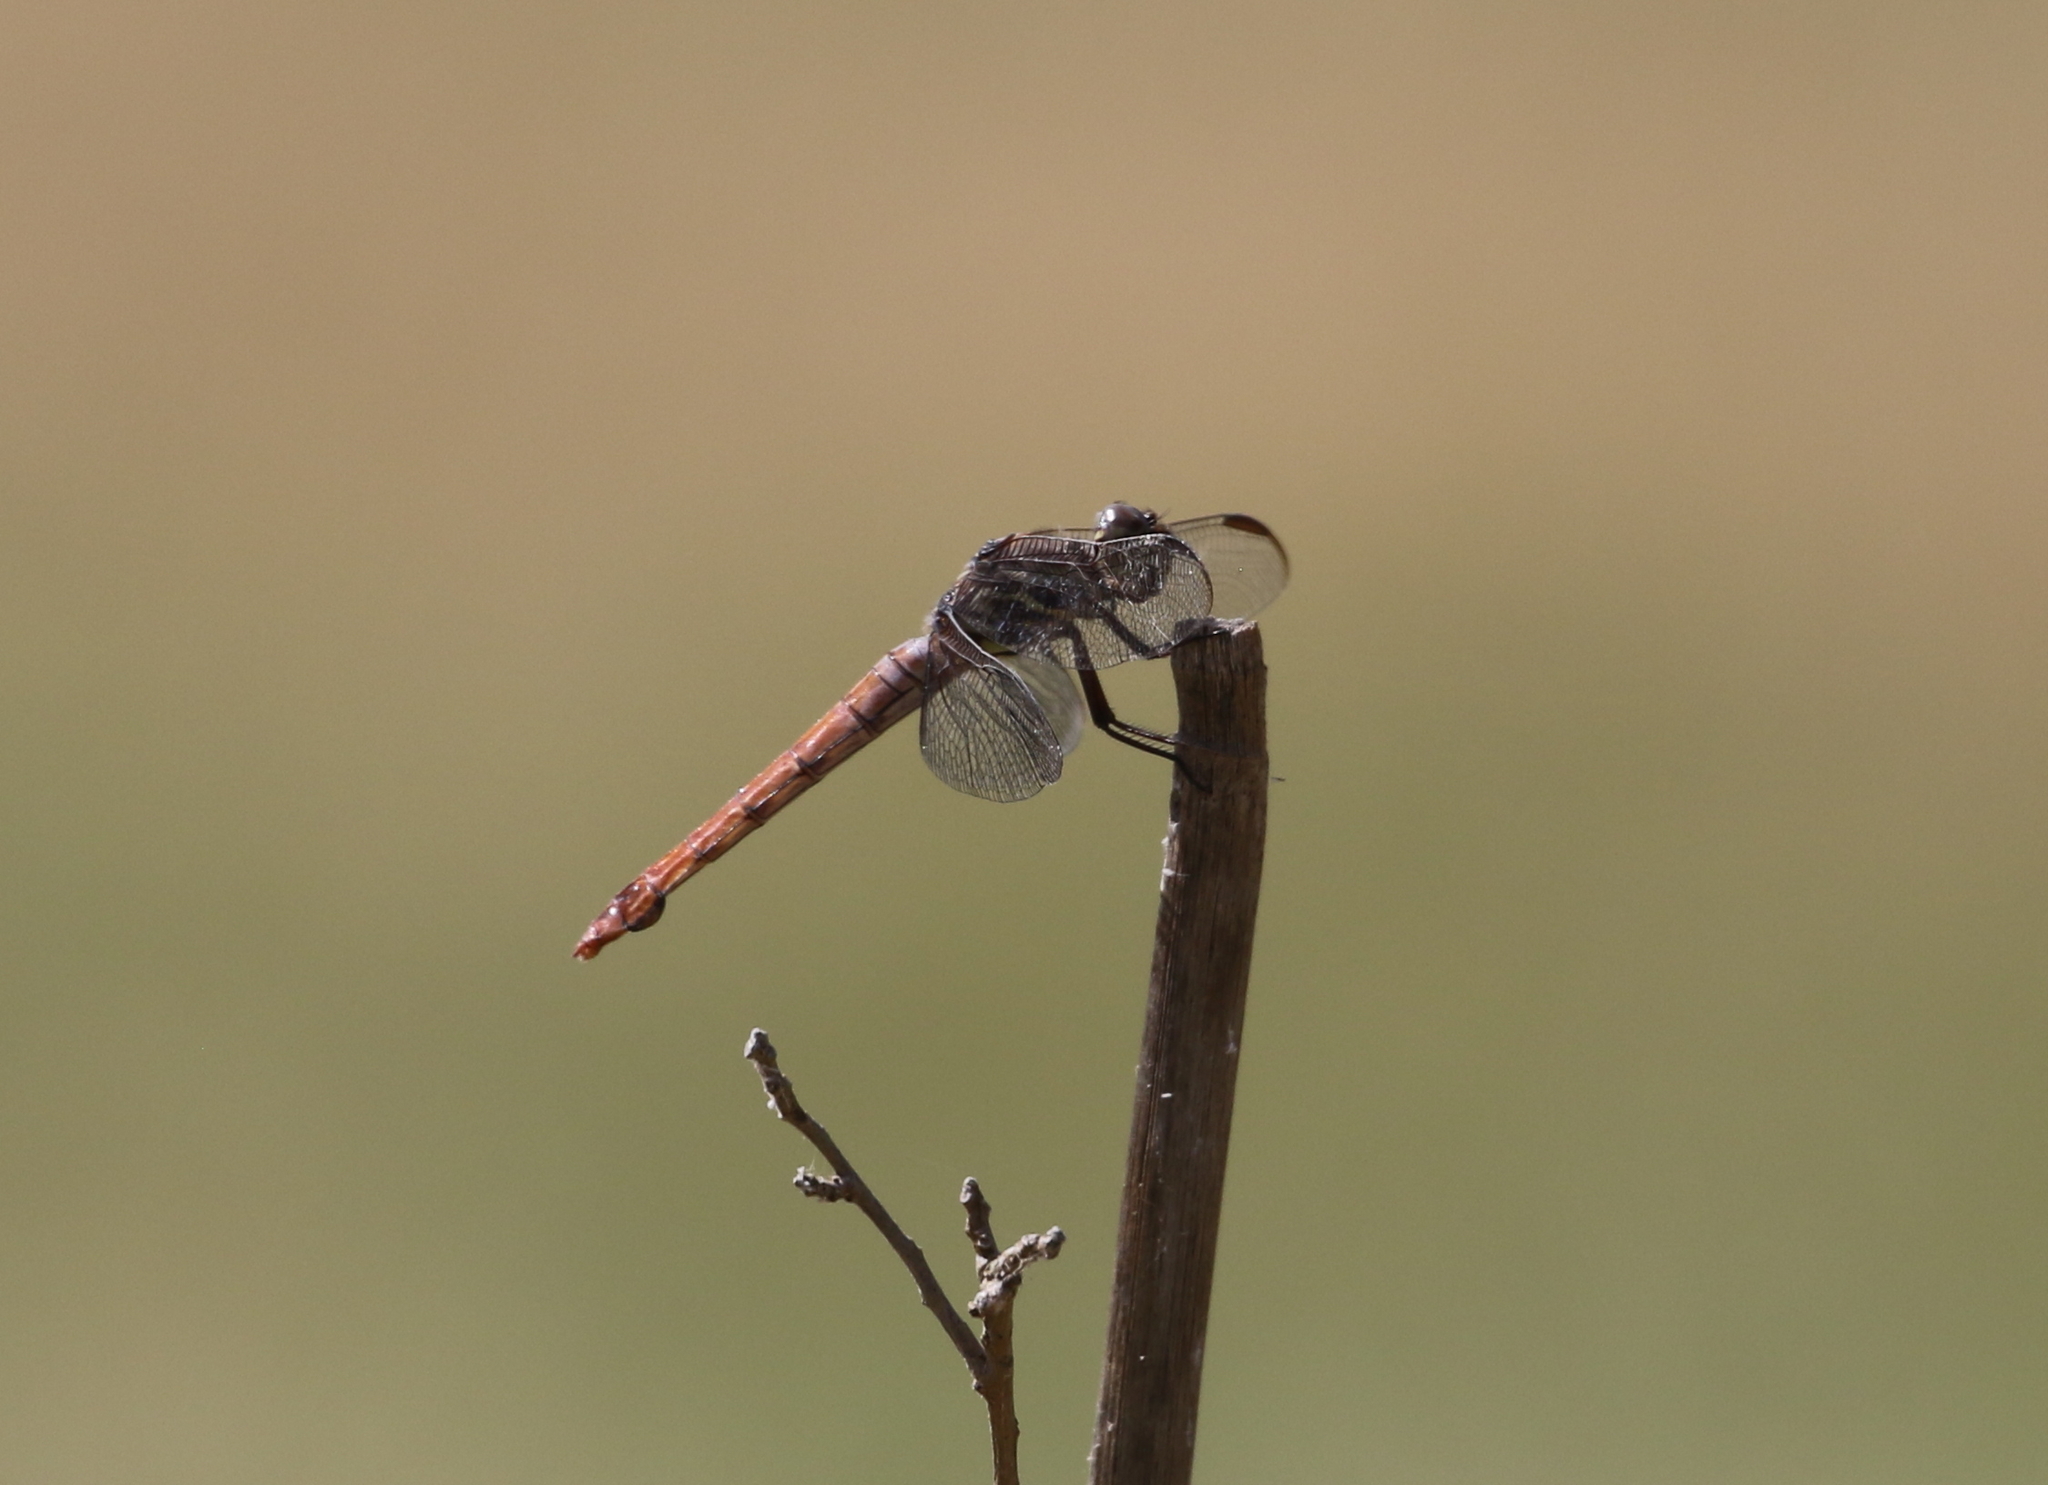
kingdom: Animalia
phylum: Arthropoda
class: Insecta
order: Odonata
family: Libellulidae
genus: Orthemis
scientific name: Orthemis ferruginea
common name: Roseate skimmer
